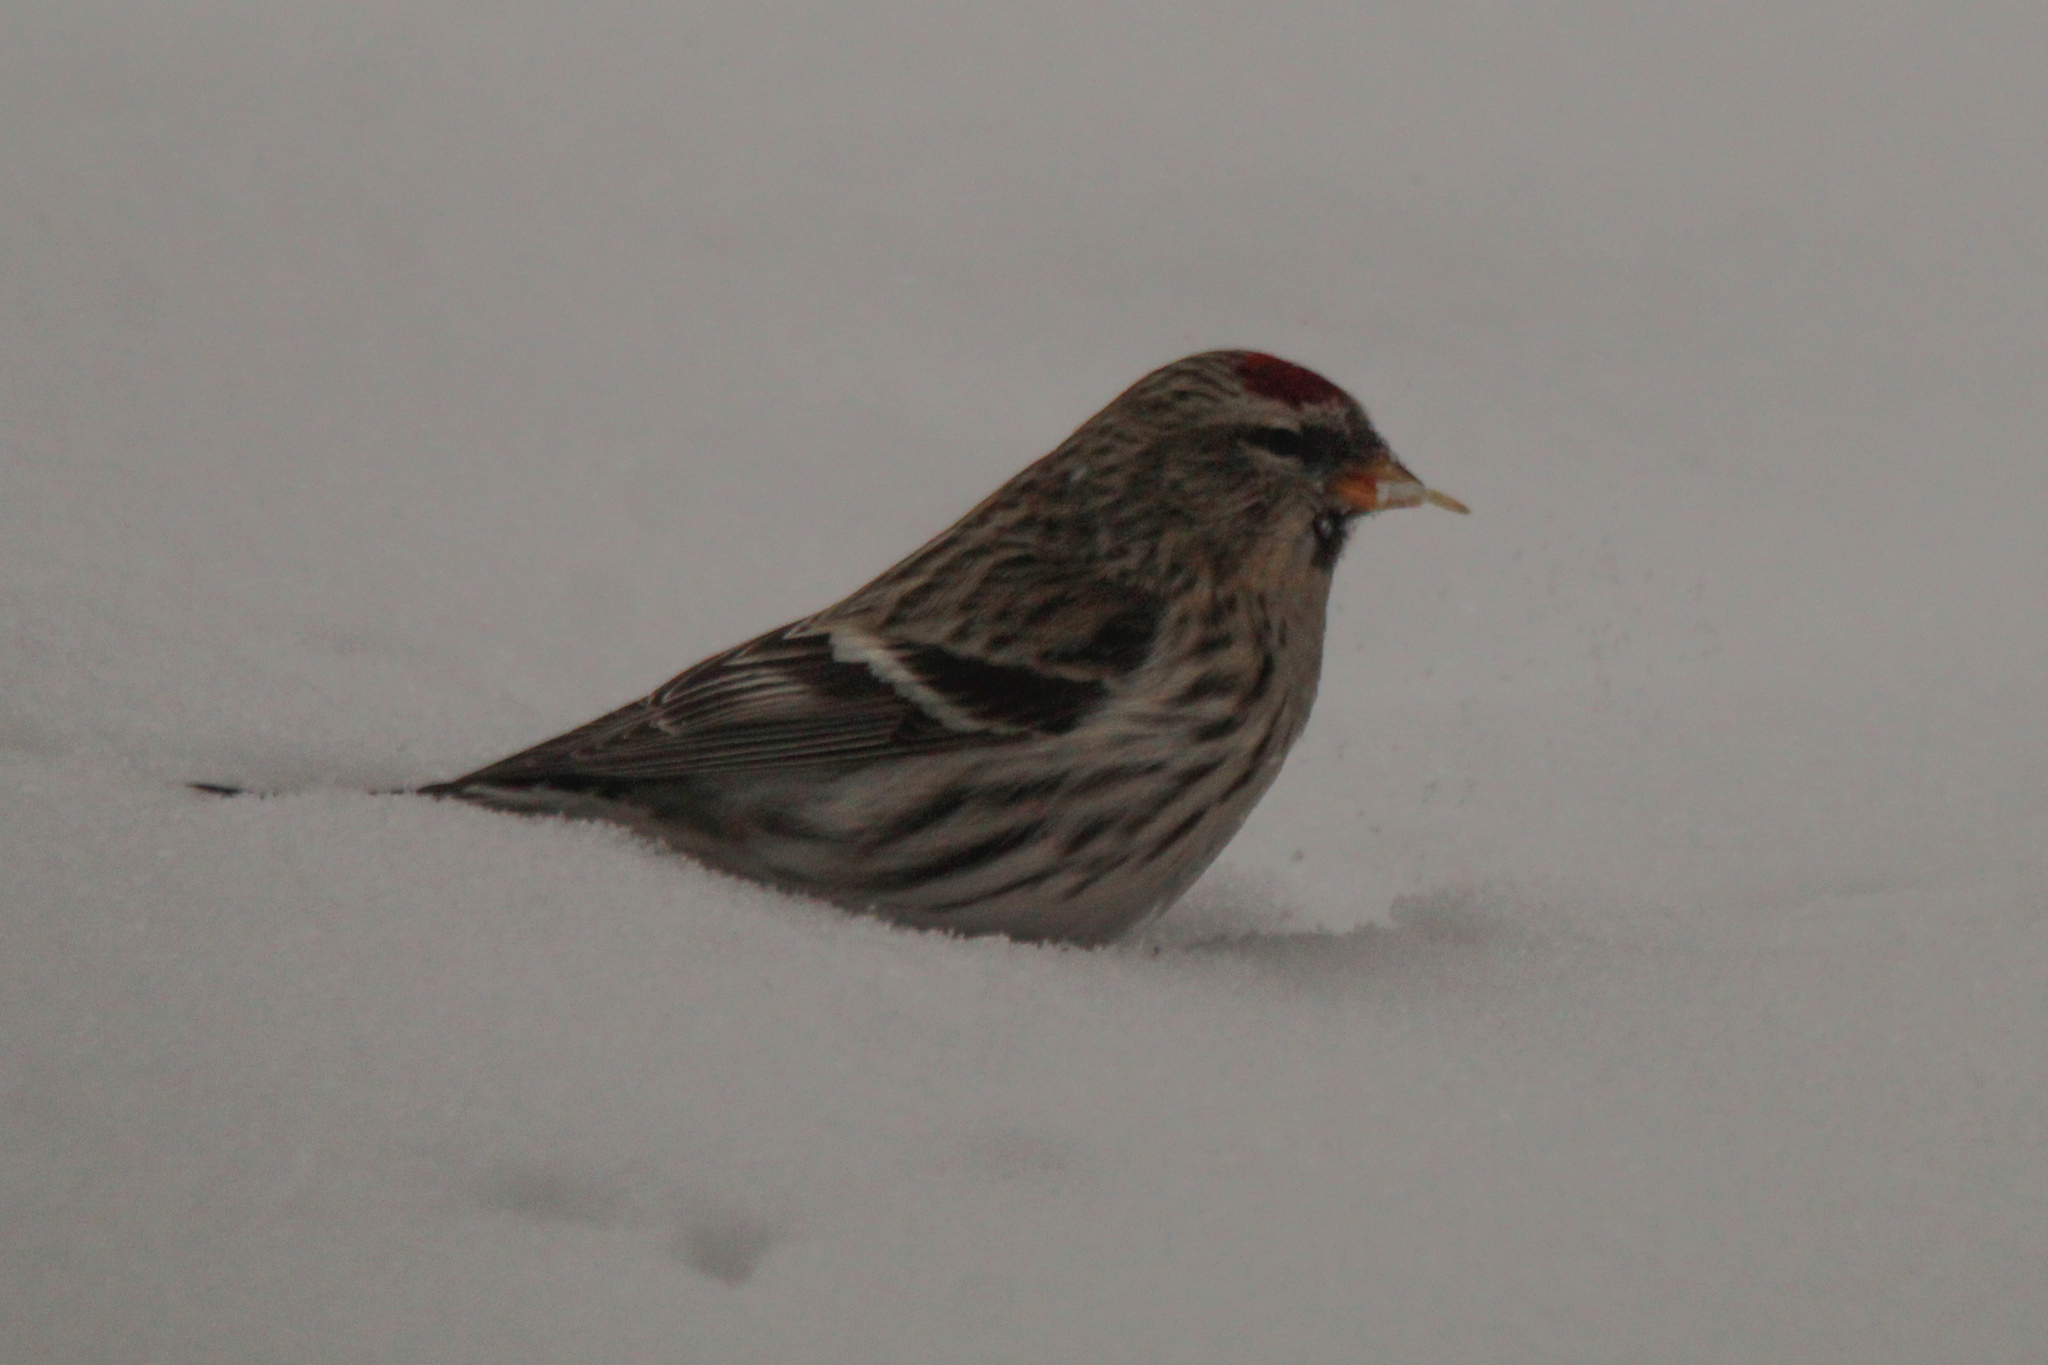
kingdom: Animalia
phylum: Chordata
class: Aves
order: Passeriformes
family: Fringillidae
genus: Acanthis
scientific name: Acanthis flammea
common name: Common redpoll
